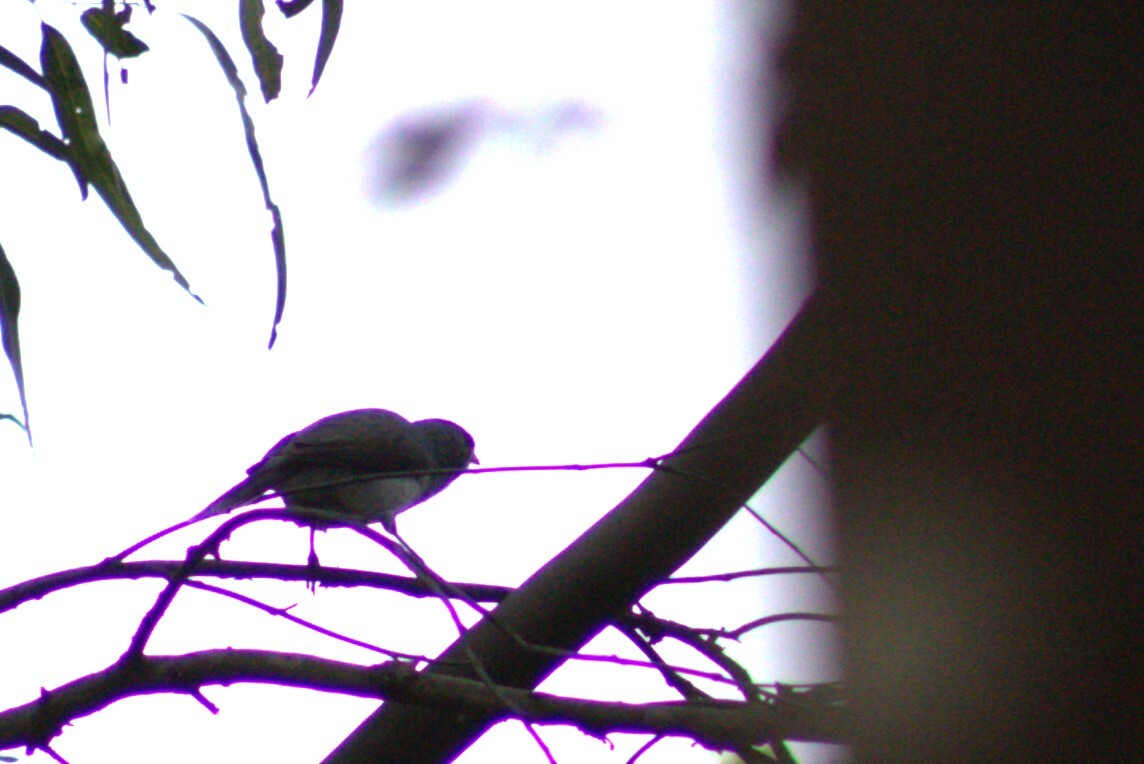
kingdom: Animalia
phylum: Chordata
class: Aves
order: Passeriformes
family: Meliphagidae
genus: Manorina
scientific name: Manorina melanocephala
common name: Noisy miner
